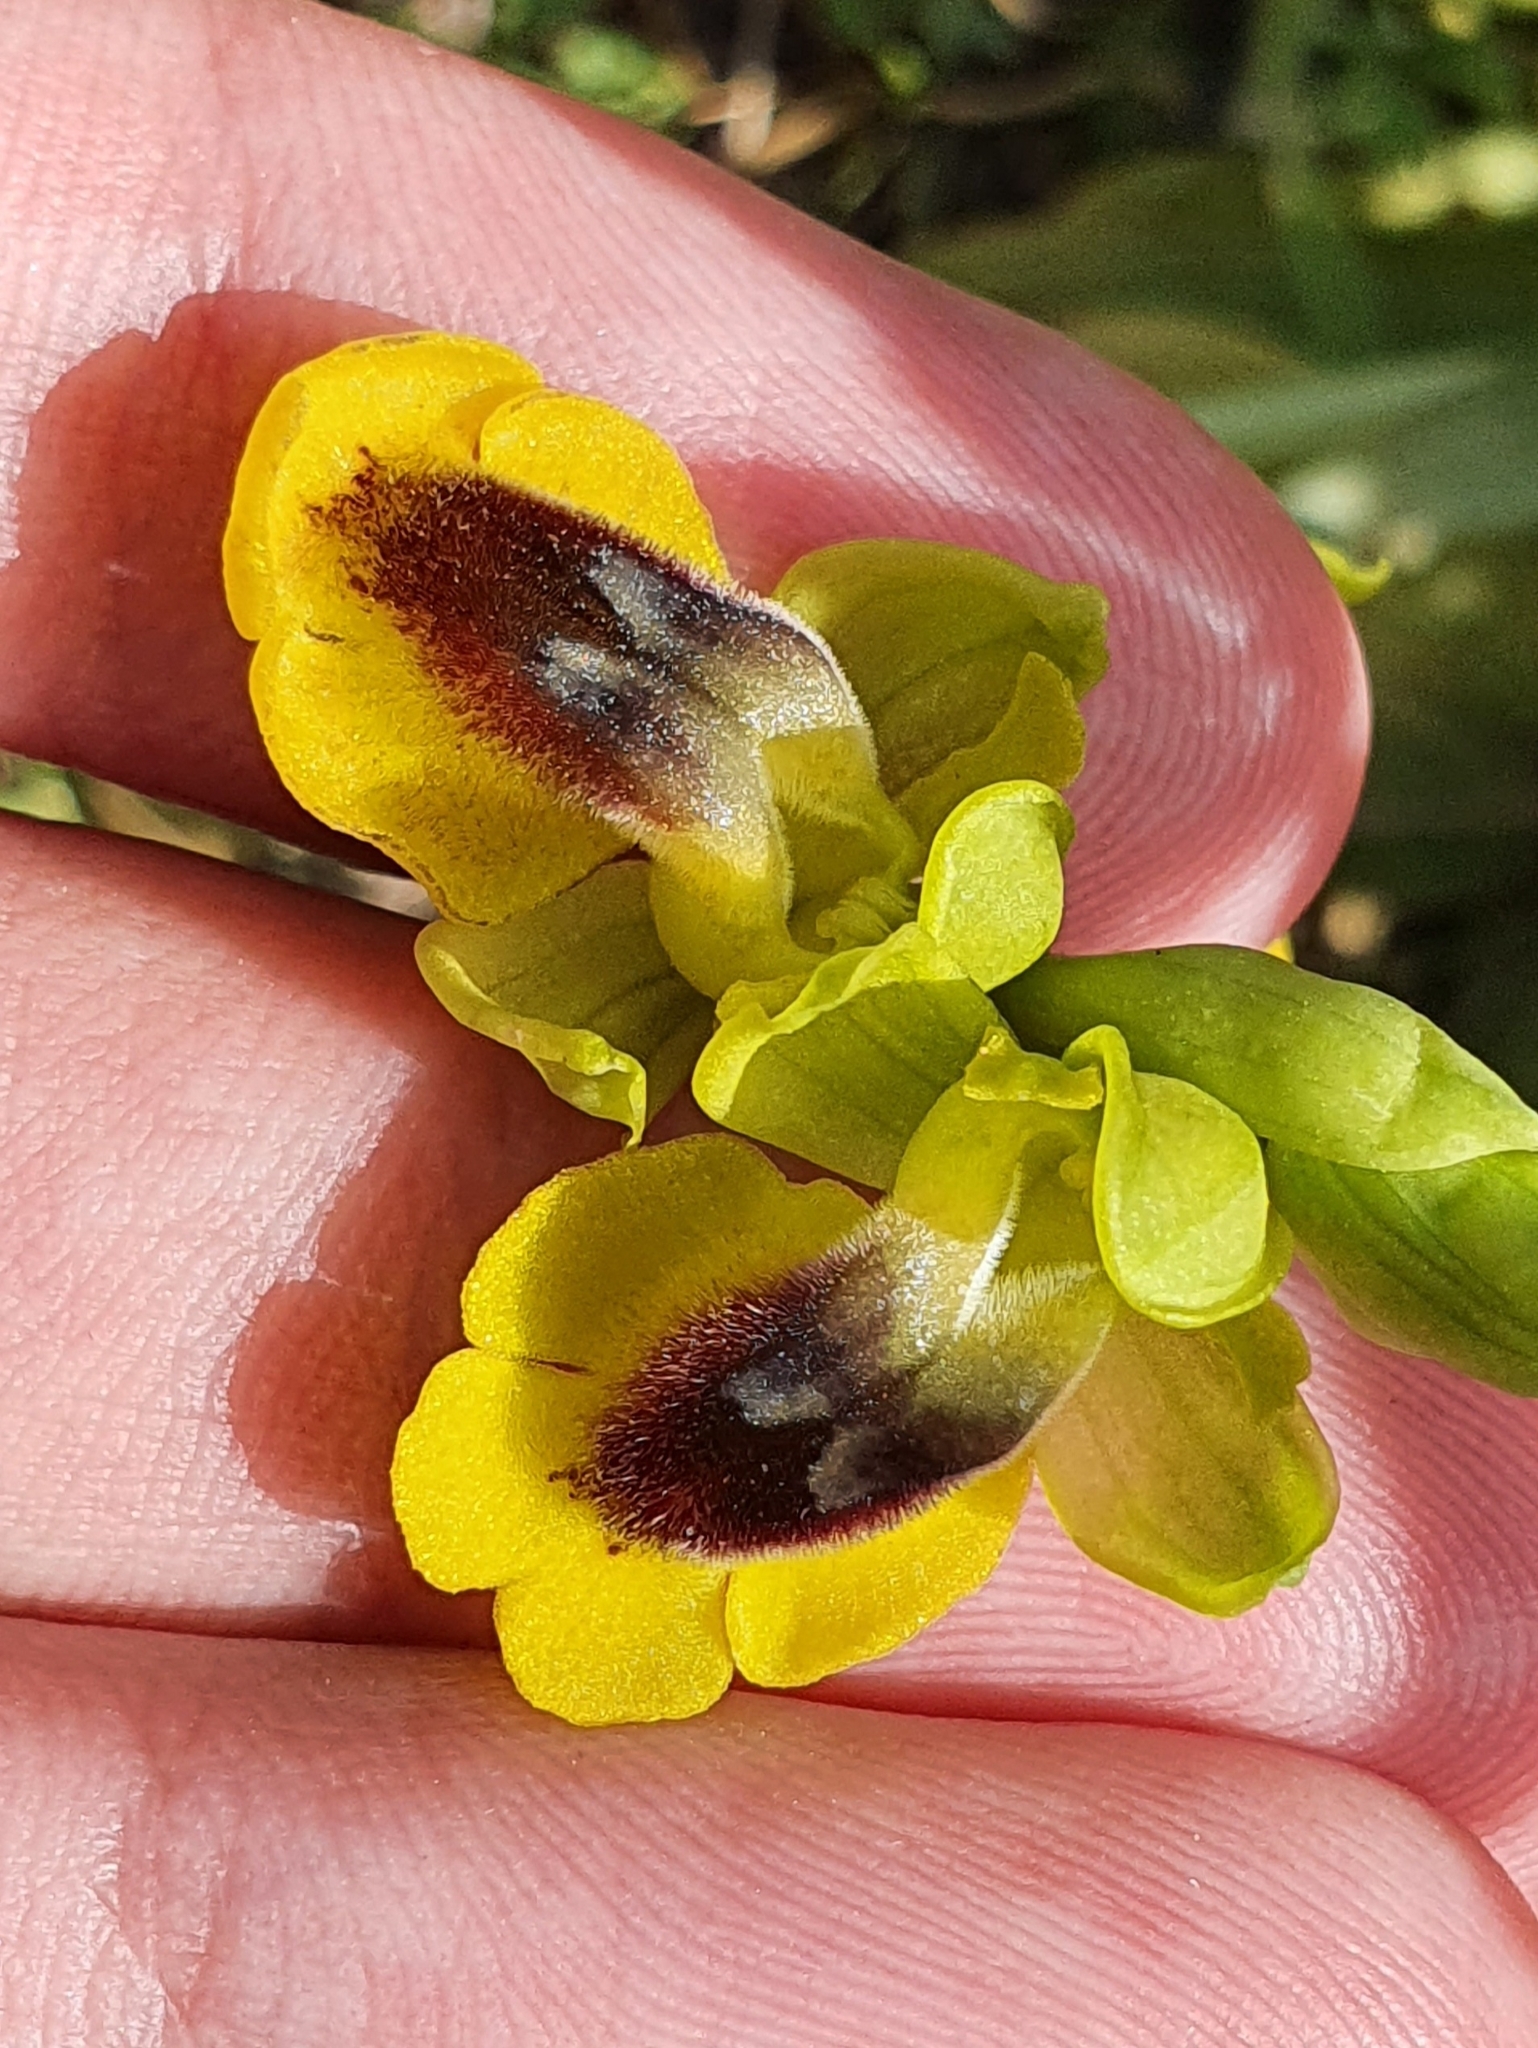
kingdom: Plantae
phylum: Tracheophyta
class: Liliopsida
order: Asparagales
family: Orchidaceae
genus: Ophrys
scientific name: Ophrys lutea
